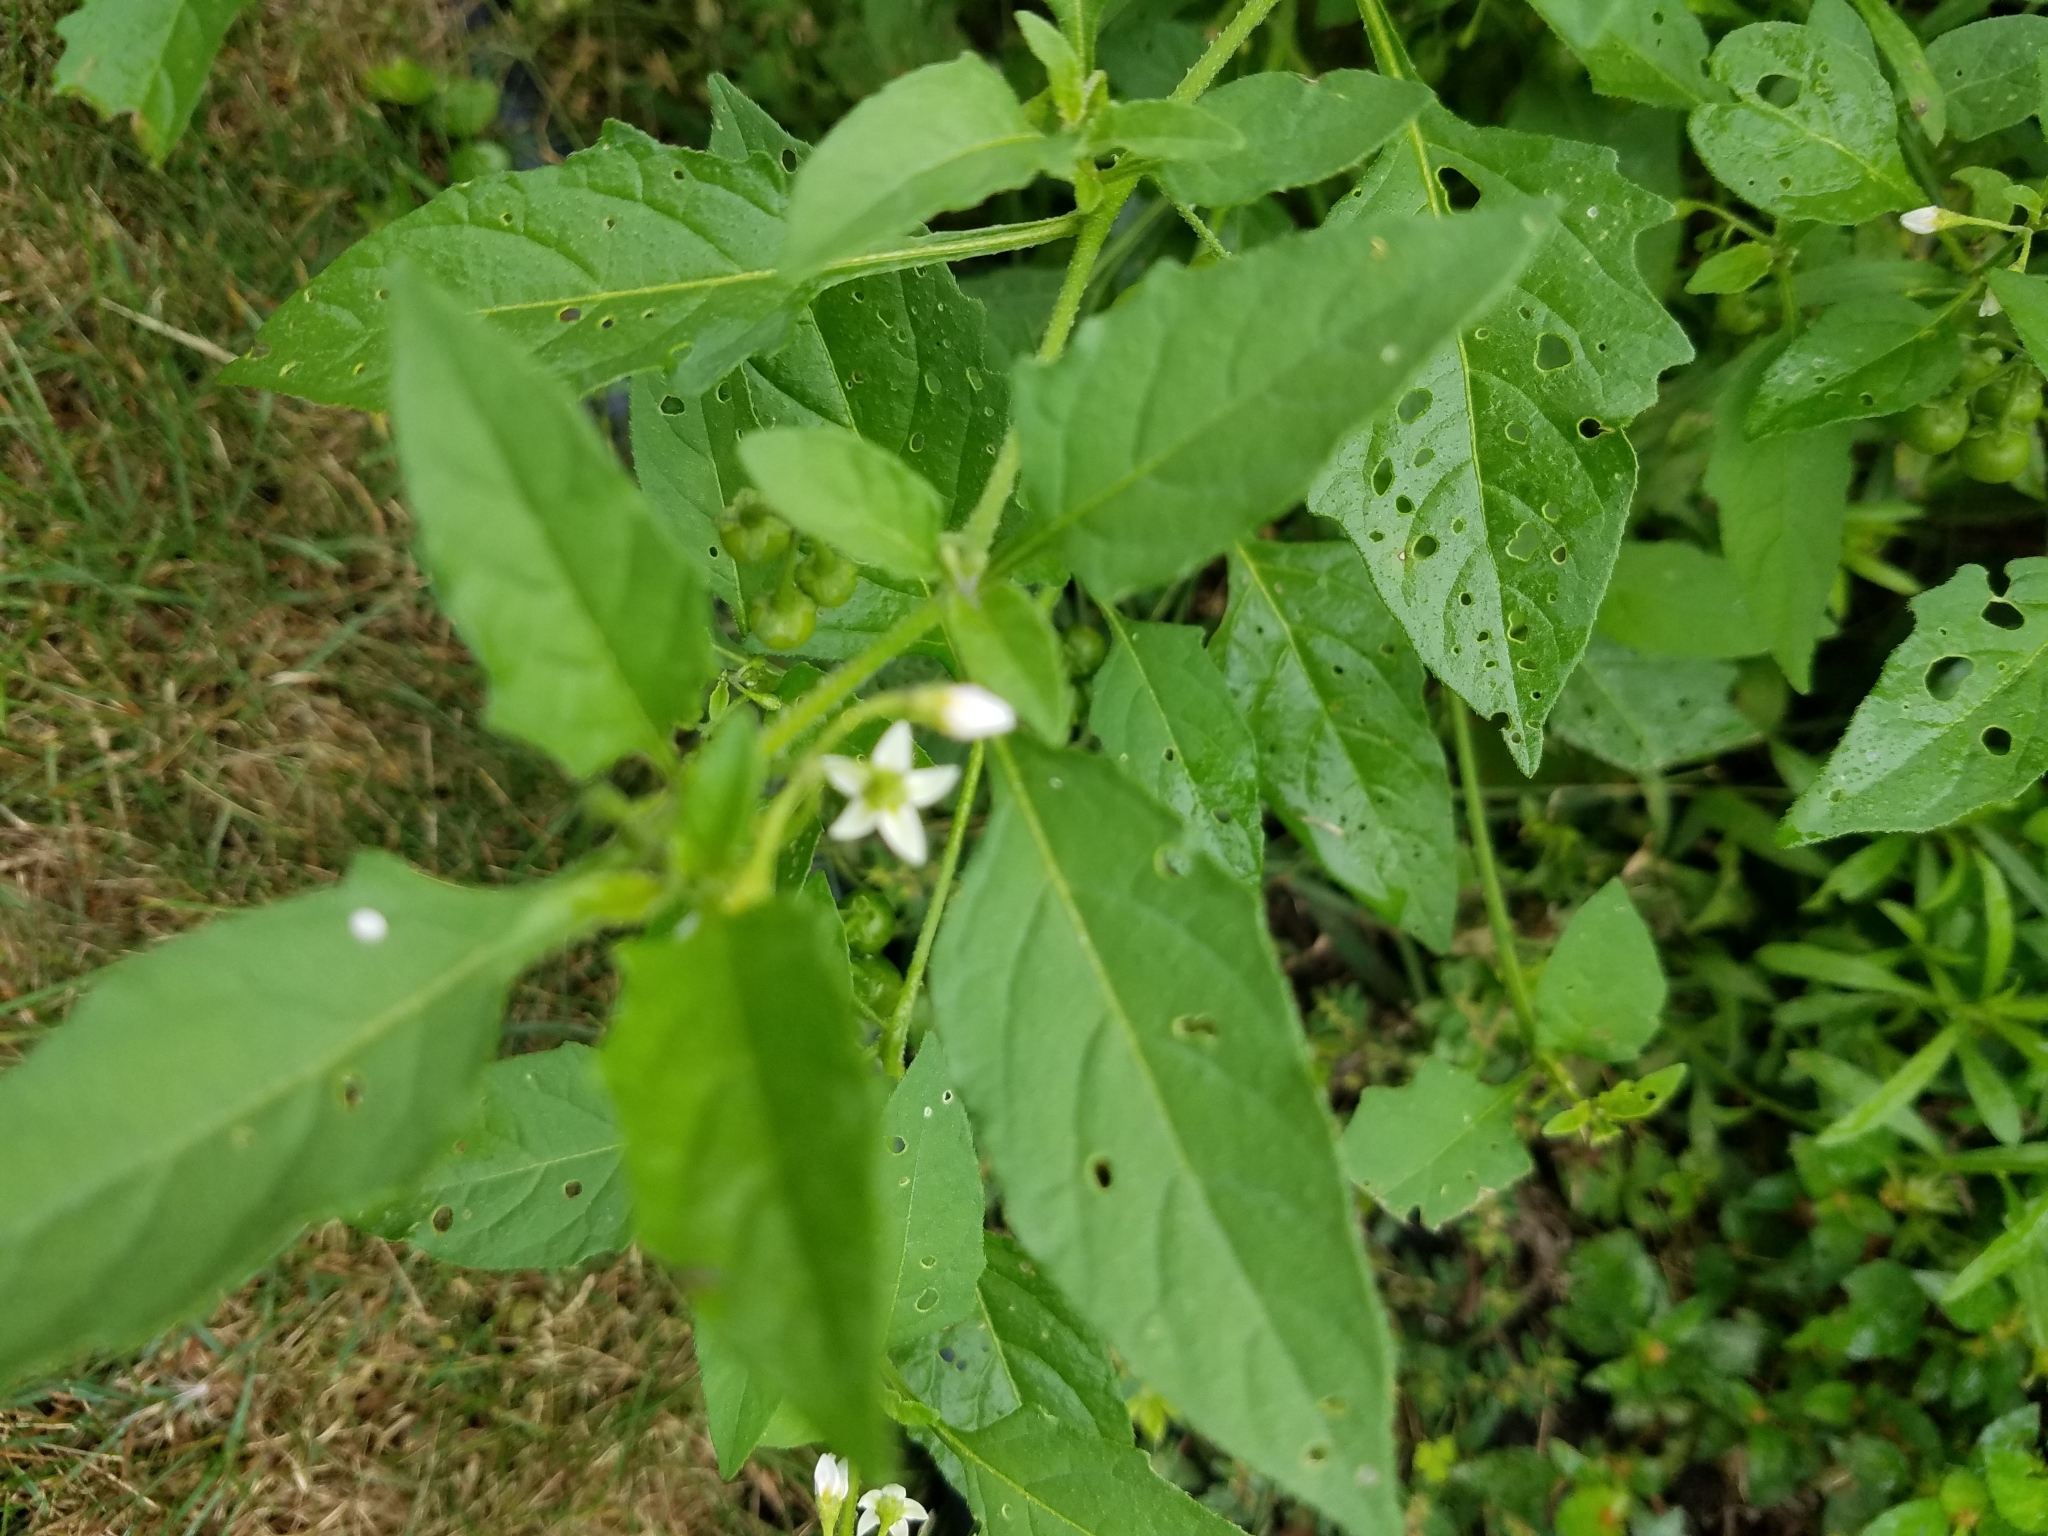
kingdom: Plantae
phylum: Tracheophyta
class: Magnoliopsida
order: Solanales
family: Solanaceae
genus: Solanum
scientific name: Solanum emulans
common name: Eastern black nightshade
